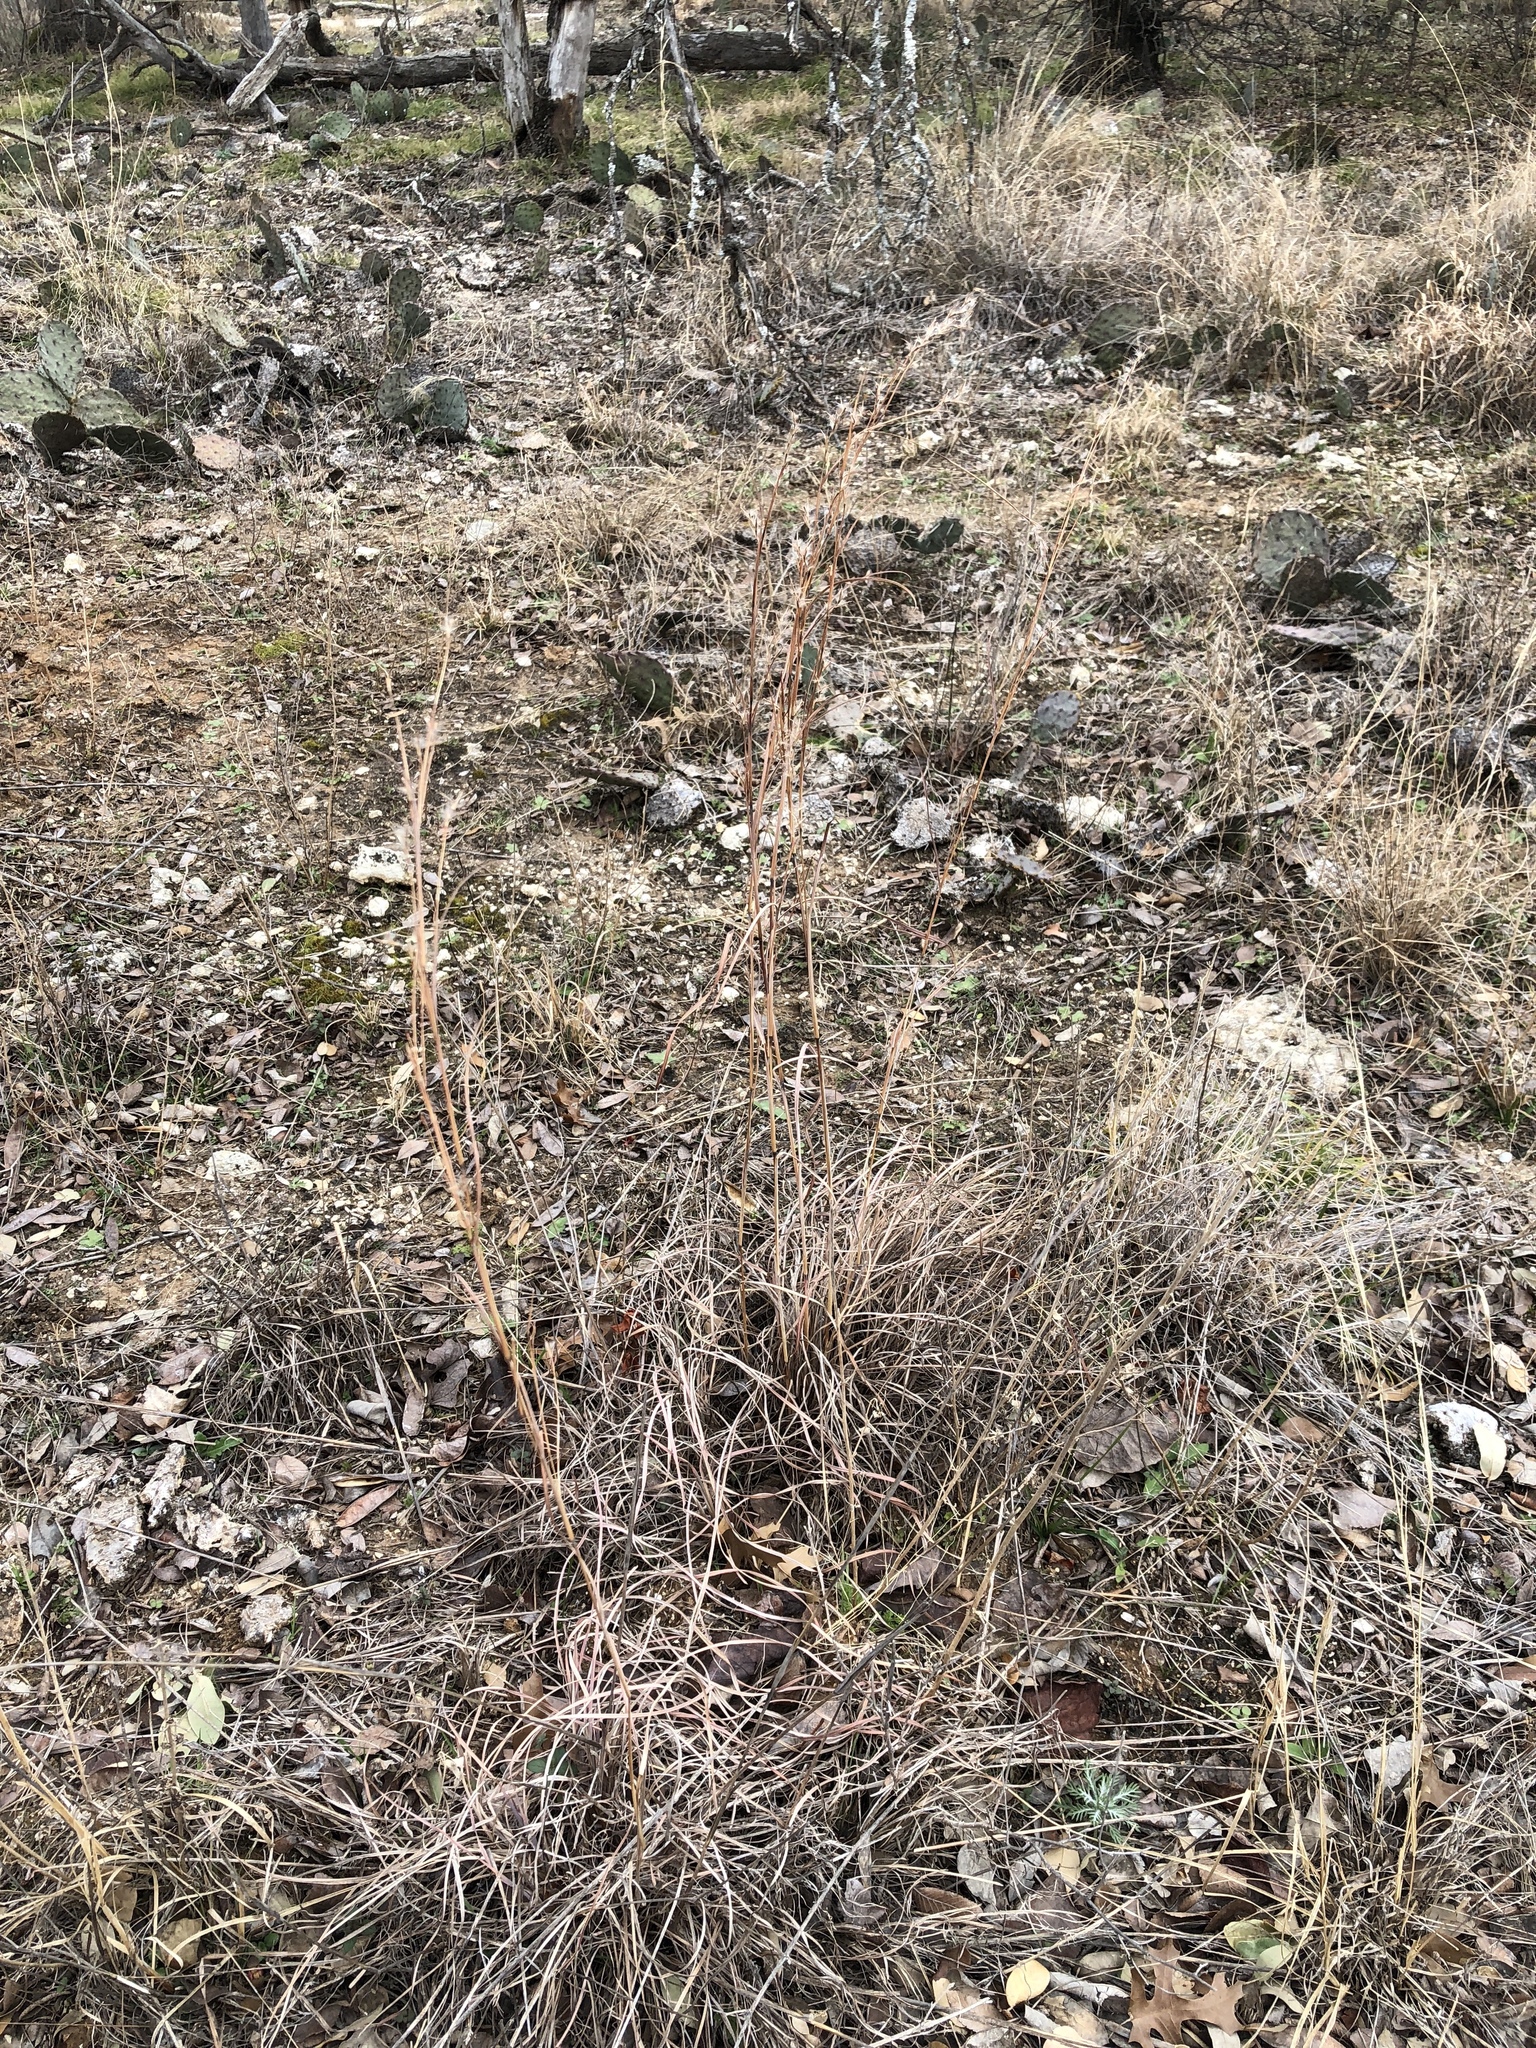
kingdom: Plantae
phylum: Tracheophyta
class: Liliopsida
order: Poales
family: Poaceae
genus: Schizachyrium
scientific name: Schizachyrium scoparium
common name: Little bluestem
